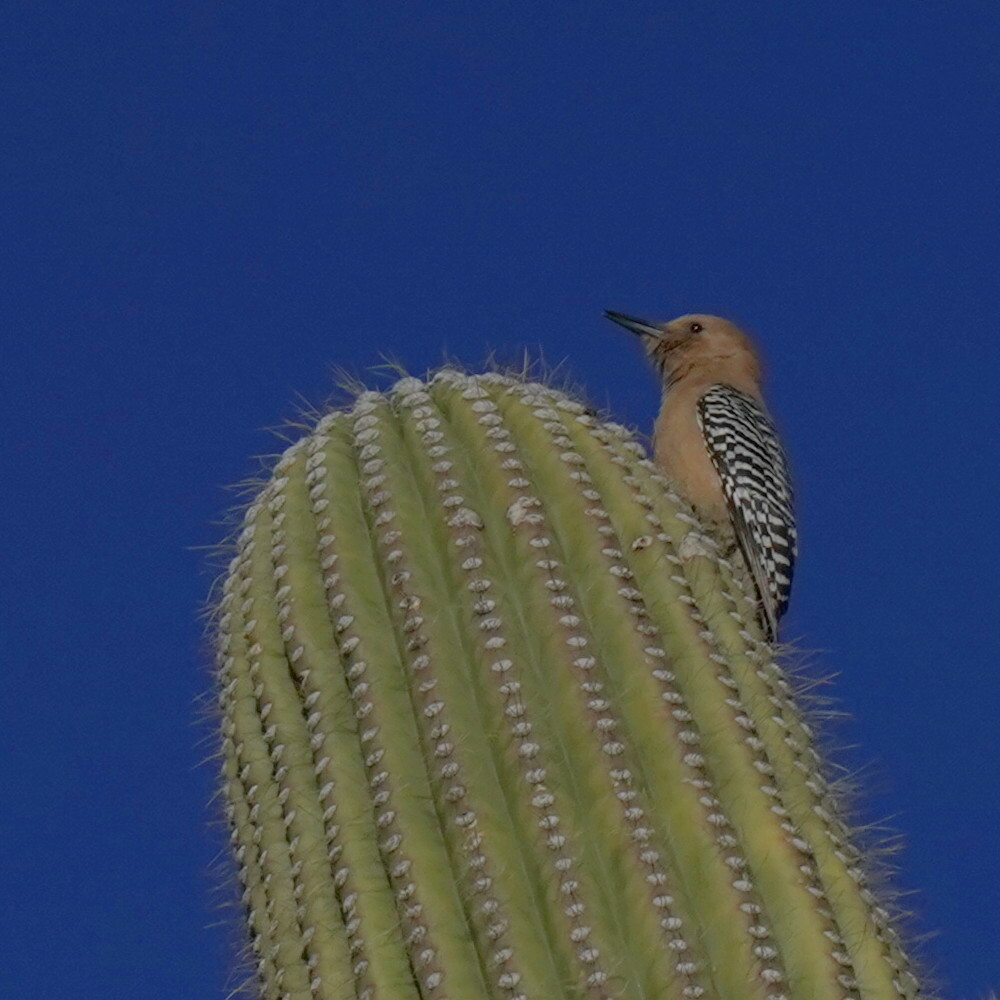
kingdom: Animalia
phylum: Chordata
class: Aves
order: Piciformes
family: Picidae
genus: Melanerpes
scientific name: Melanerpes uropygialis
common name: Gila woodpecker
